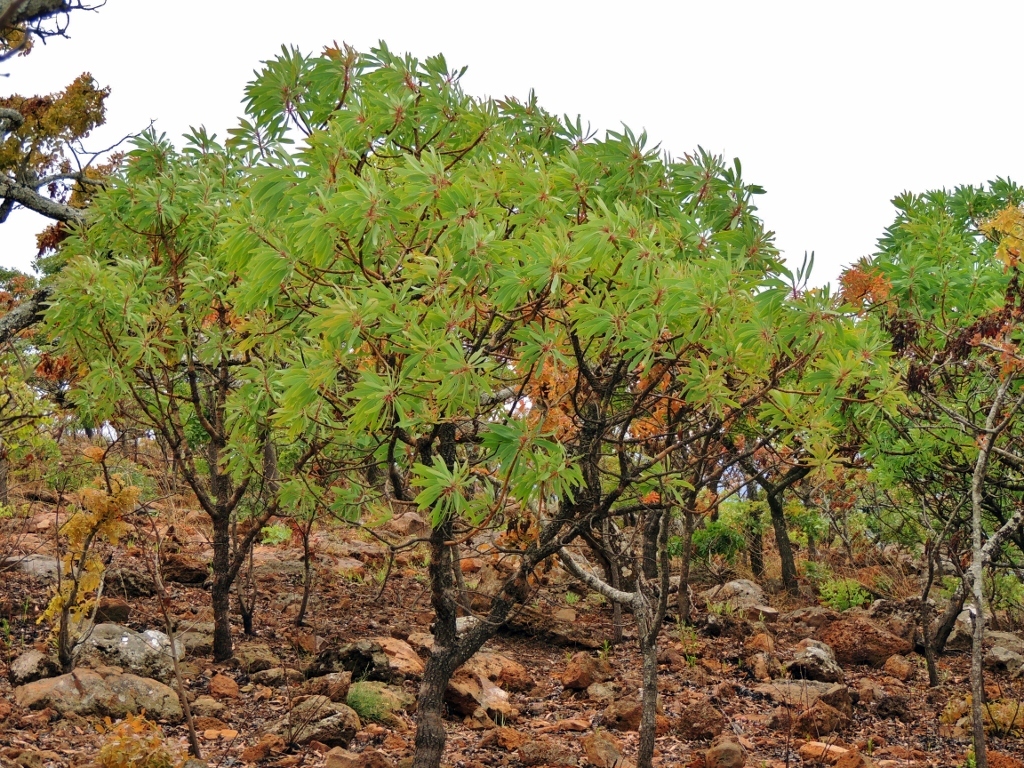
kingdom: Plantae
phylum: Tracheophyta
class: Magnoliopsida
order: Proteales
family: Proteaceae
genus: Protea
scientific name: Protea petiolaris
